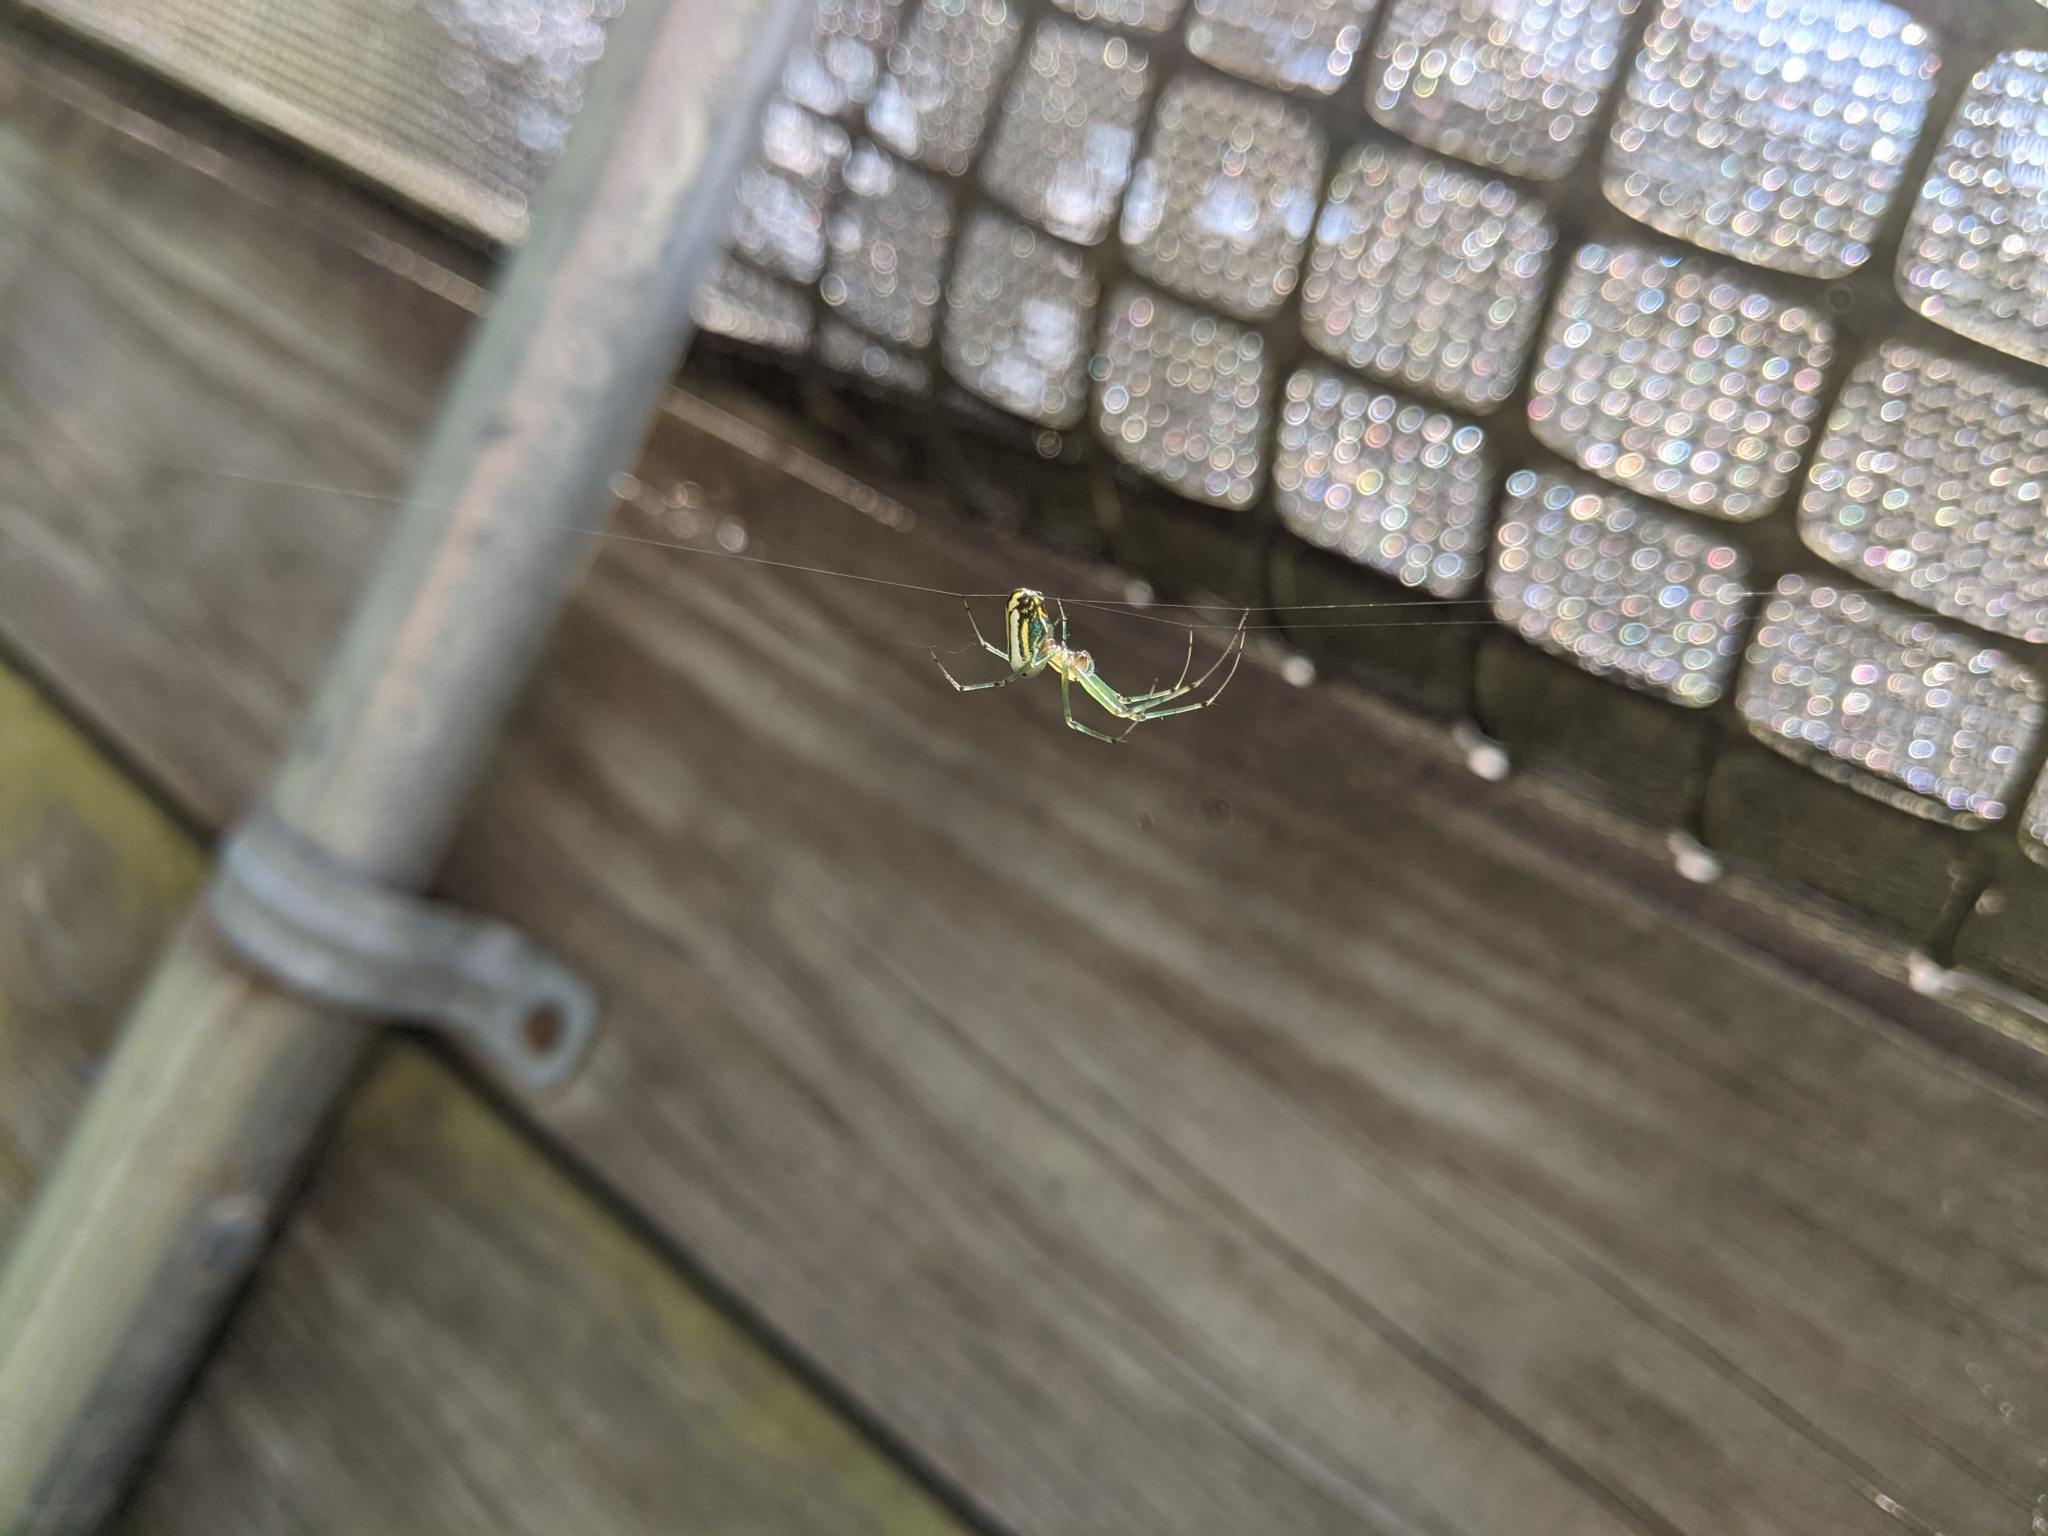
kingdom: Animalia
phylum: Arthropoda
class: Arachnida
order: Araneae
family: Tetragnathidae
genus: Leucauge
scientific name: Leucauge venusta
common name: Longjawed orb weavers
